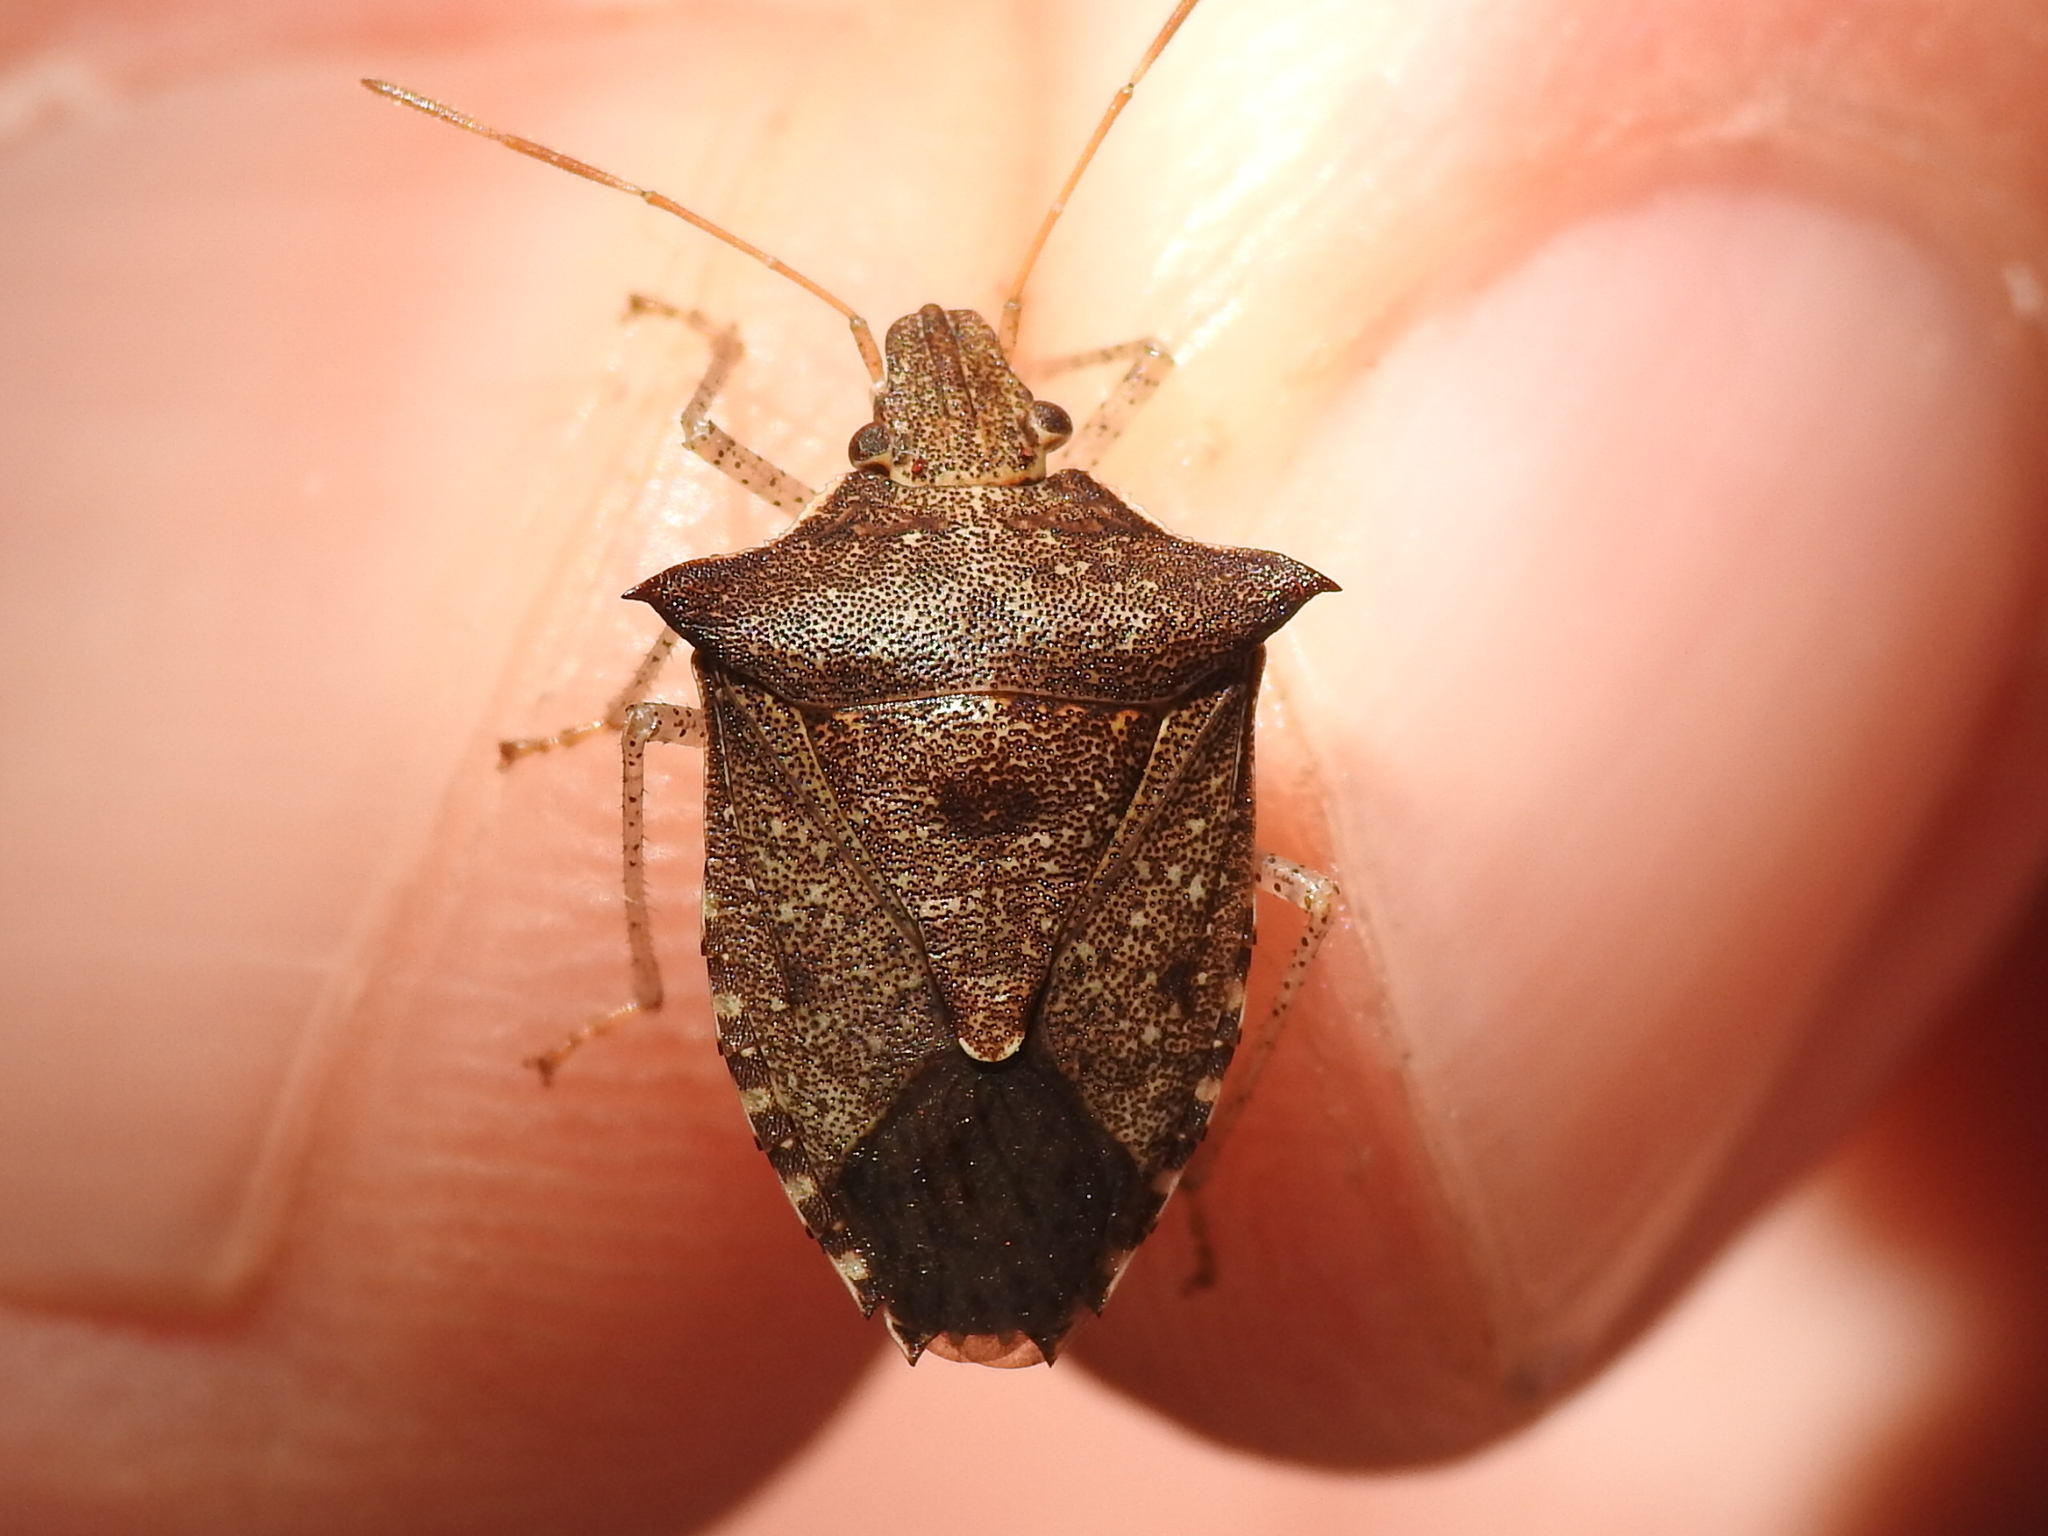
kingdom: Animalia
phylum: Arthropoda
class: Insecta
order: Hemiptera
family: Pentatomidae
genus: Euschistus
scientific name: Euschistus tristigmus
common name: Dusky stink bug
